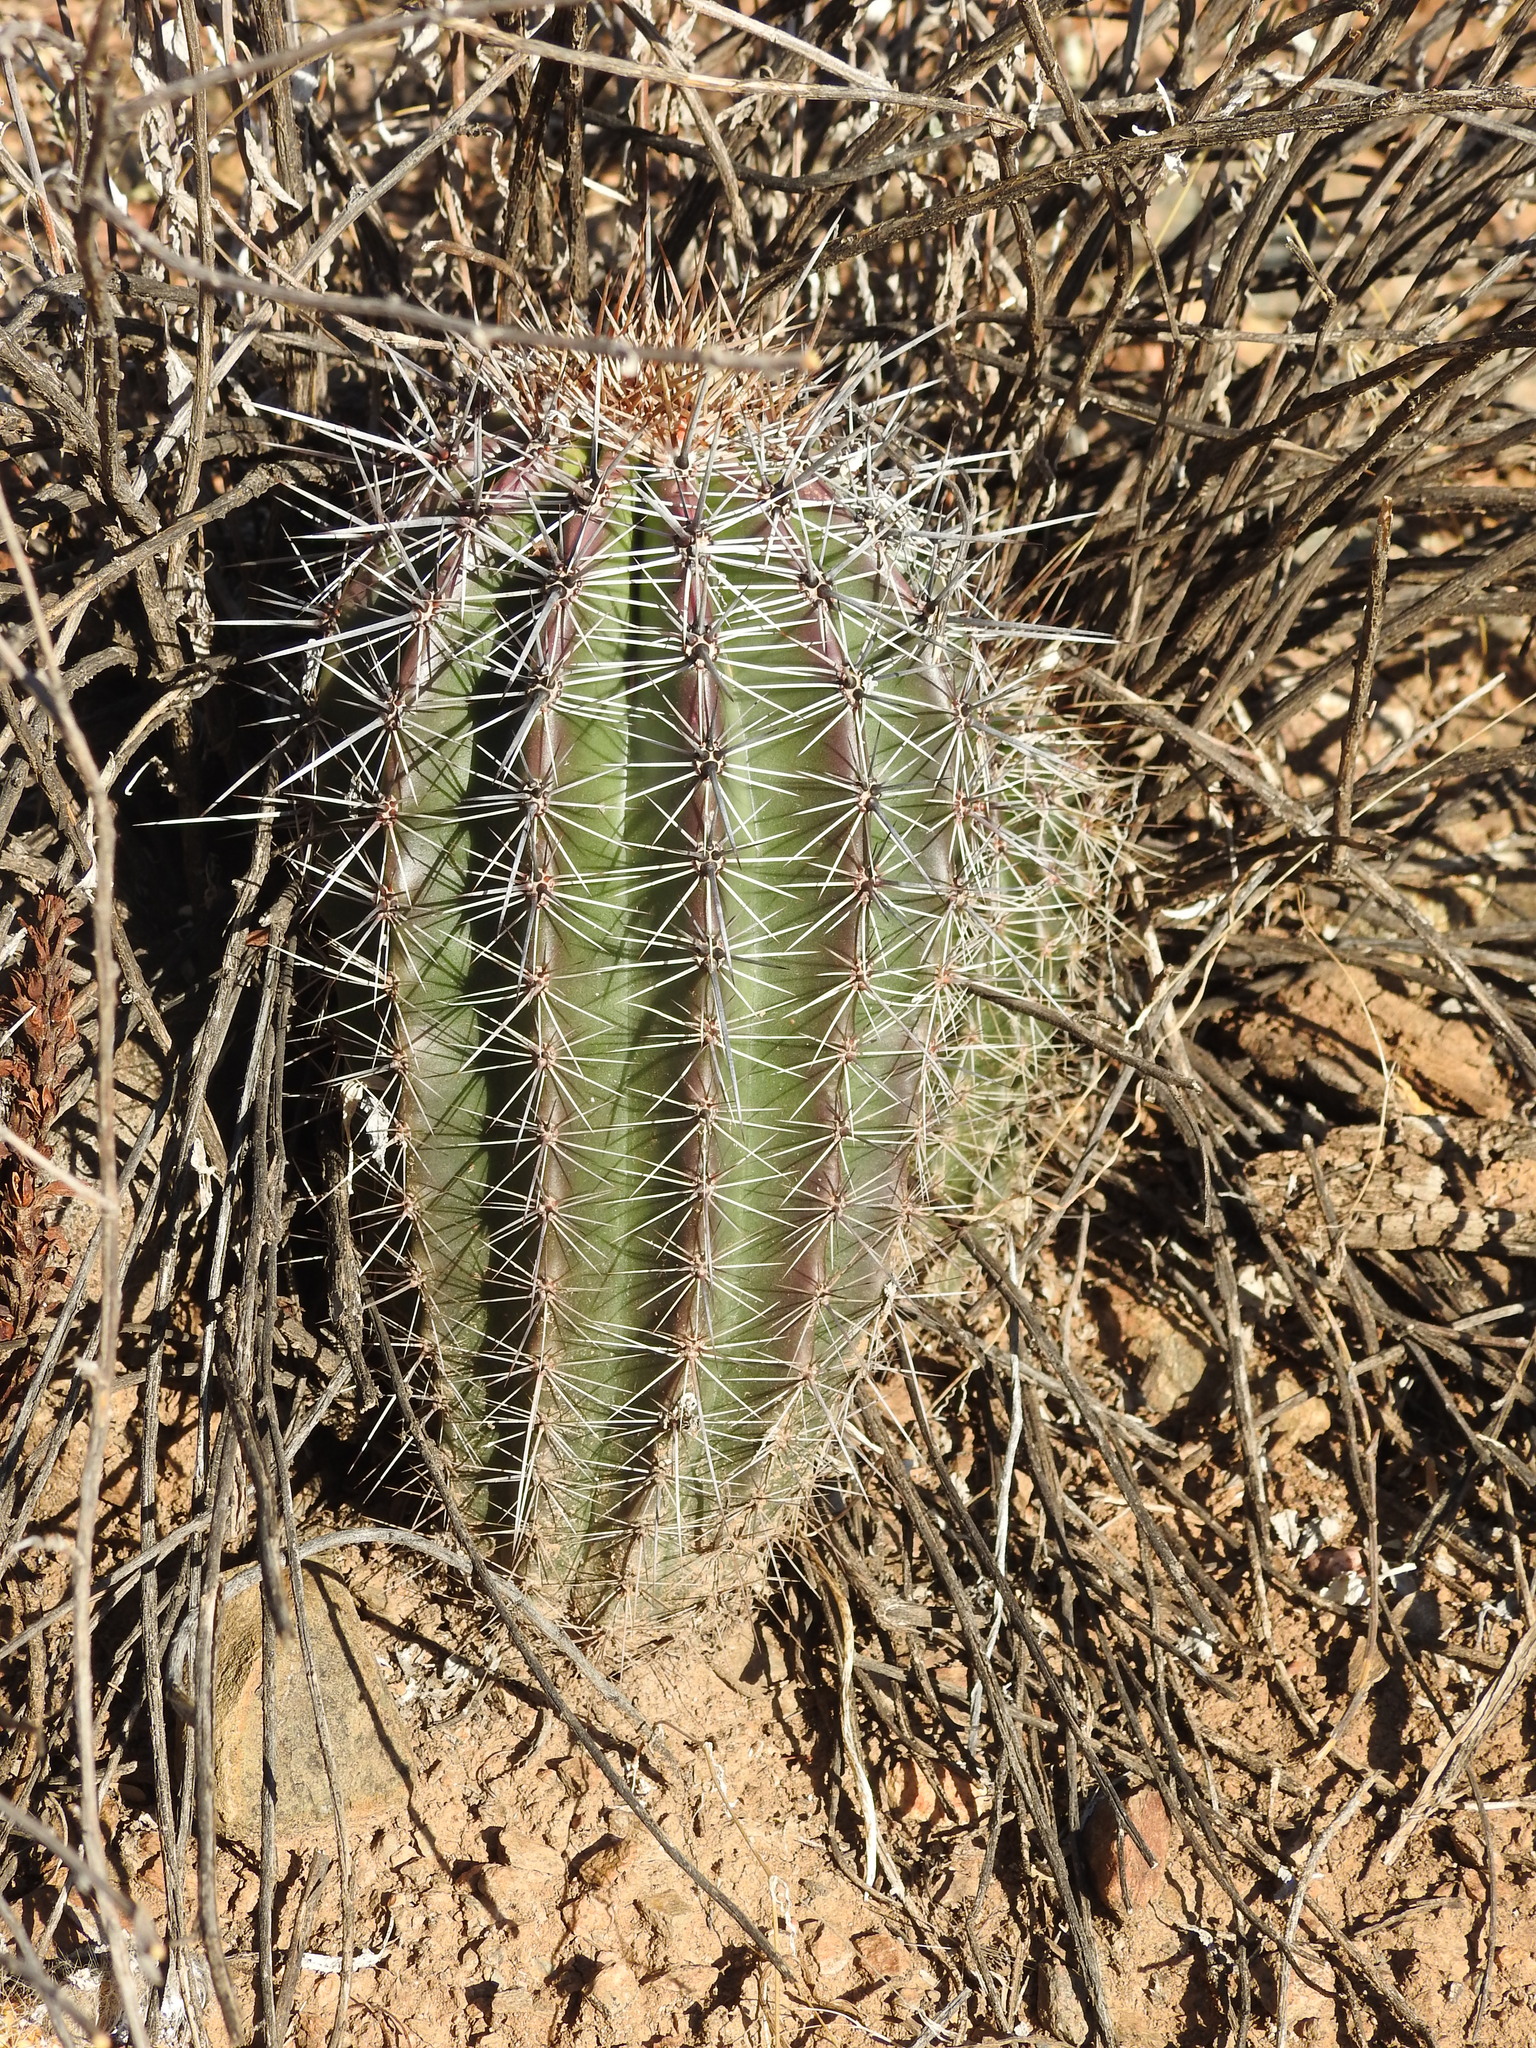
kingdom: Plantae
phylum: Tracheophyta
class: Magnoliopsida
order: Caryophyllales
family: Cactaceae
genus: Carnegiea
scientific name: Carnegiea gigantea
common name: Saguaro
